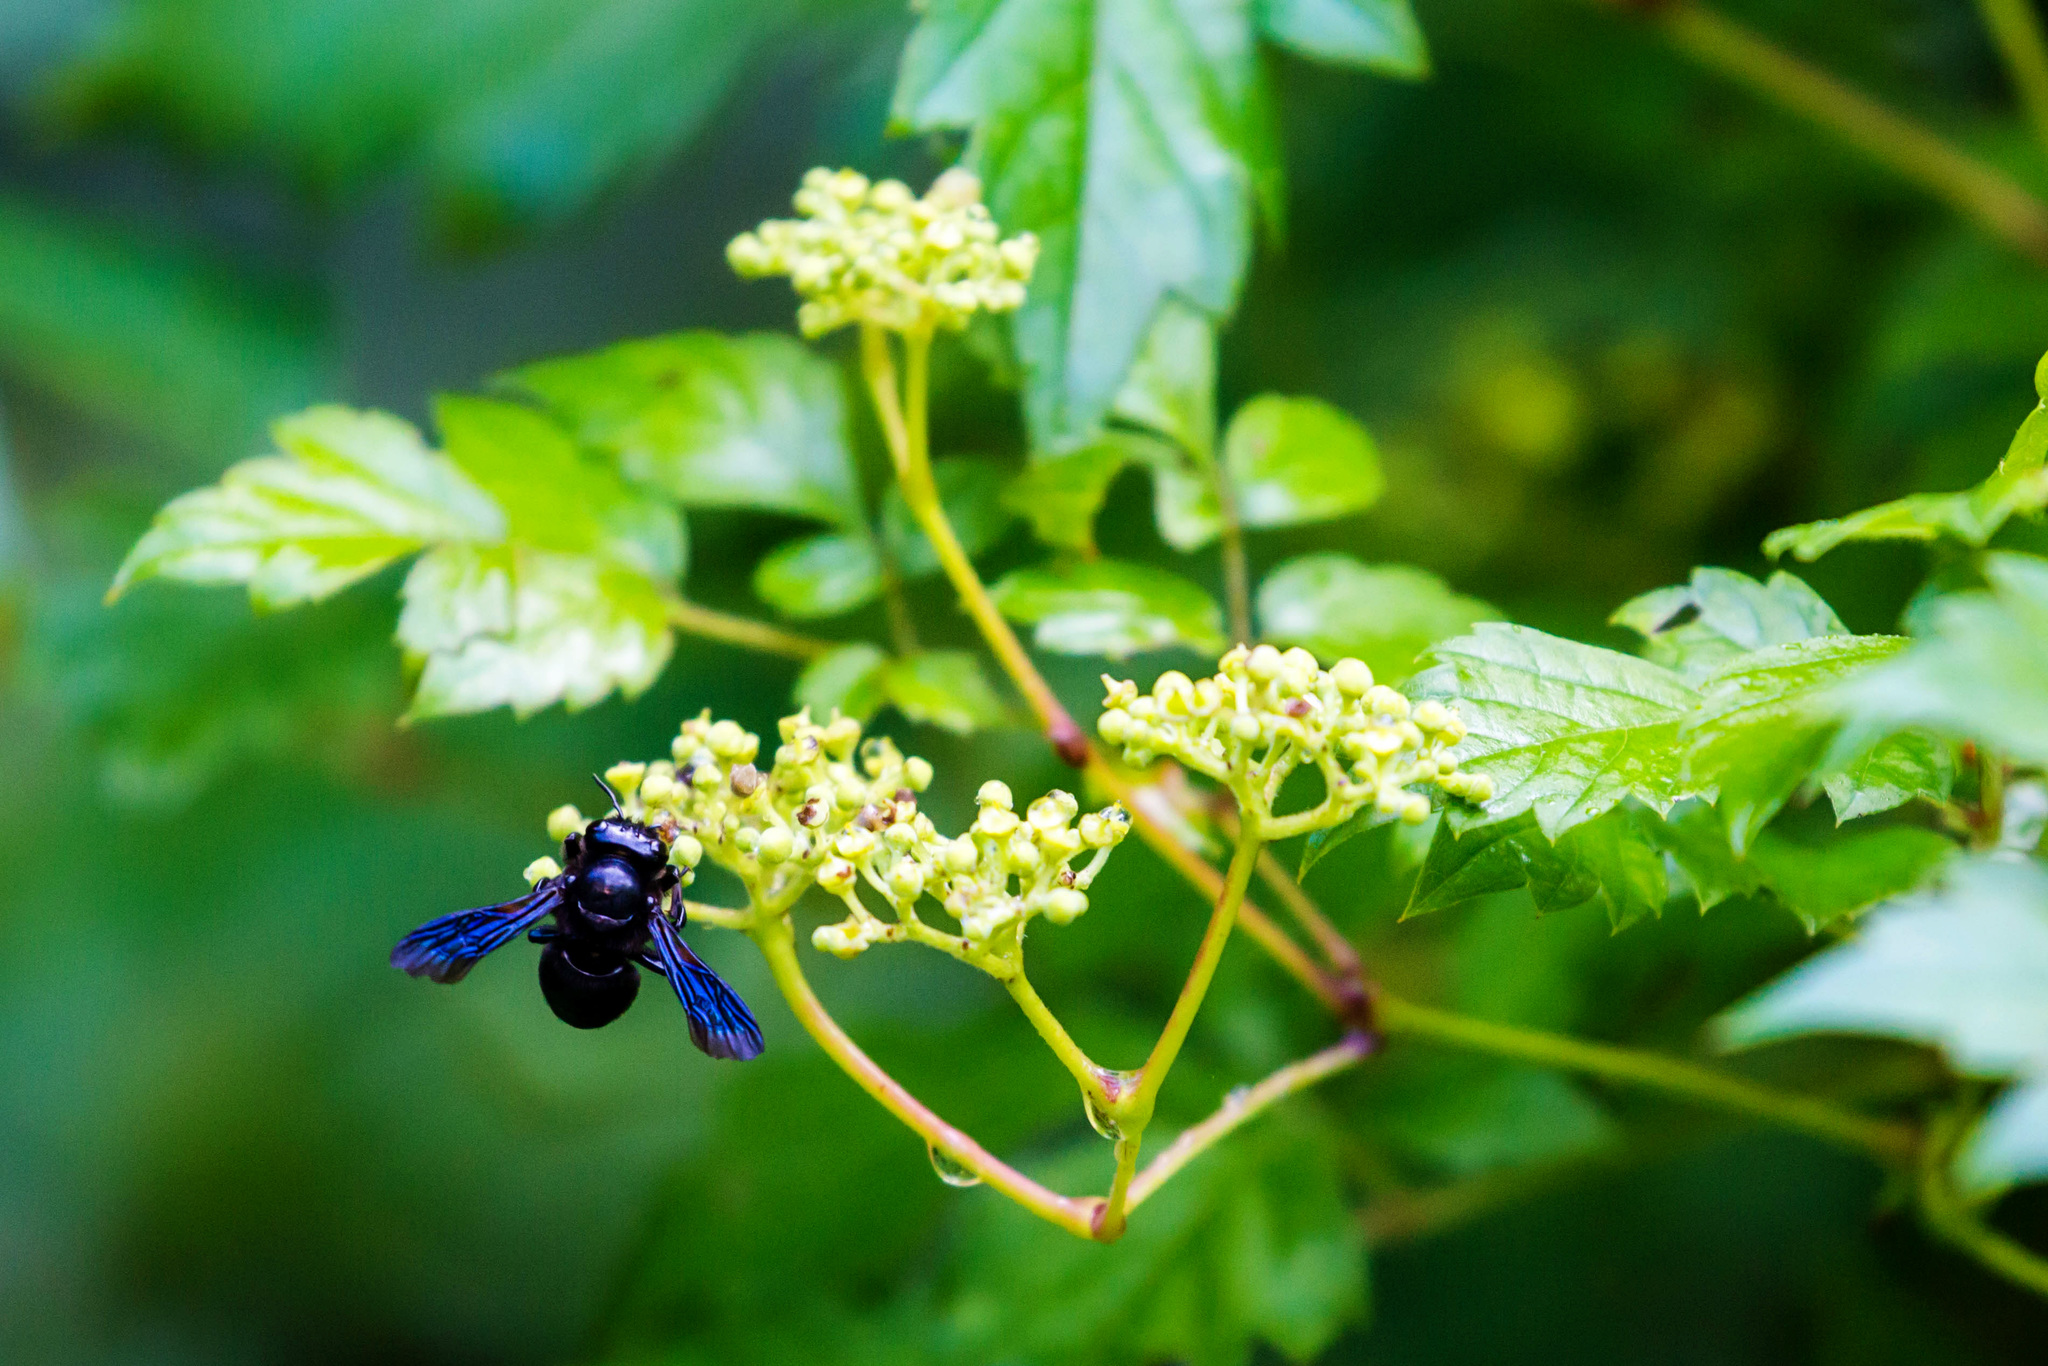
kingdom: Animalia
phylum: Arthropoda
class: Insecta
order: Hymenoptera
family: Megachilidae
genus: Megachile
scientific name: Megachile xylocopoides
